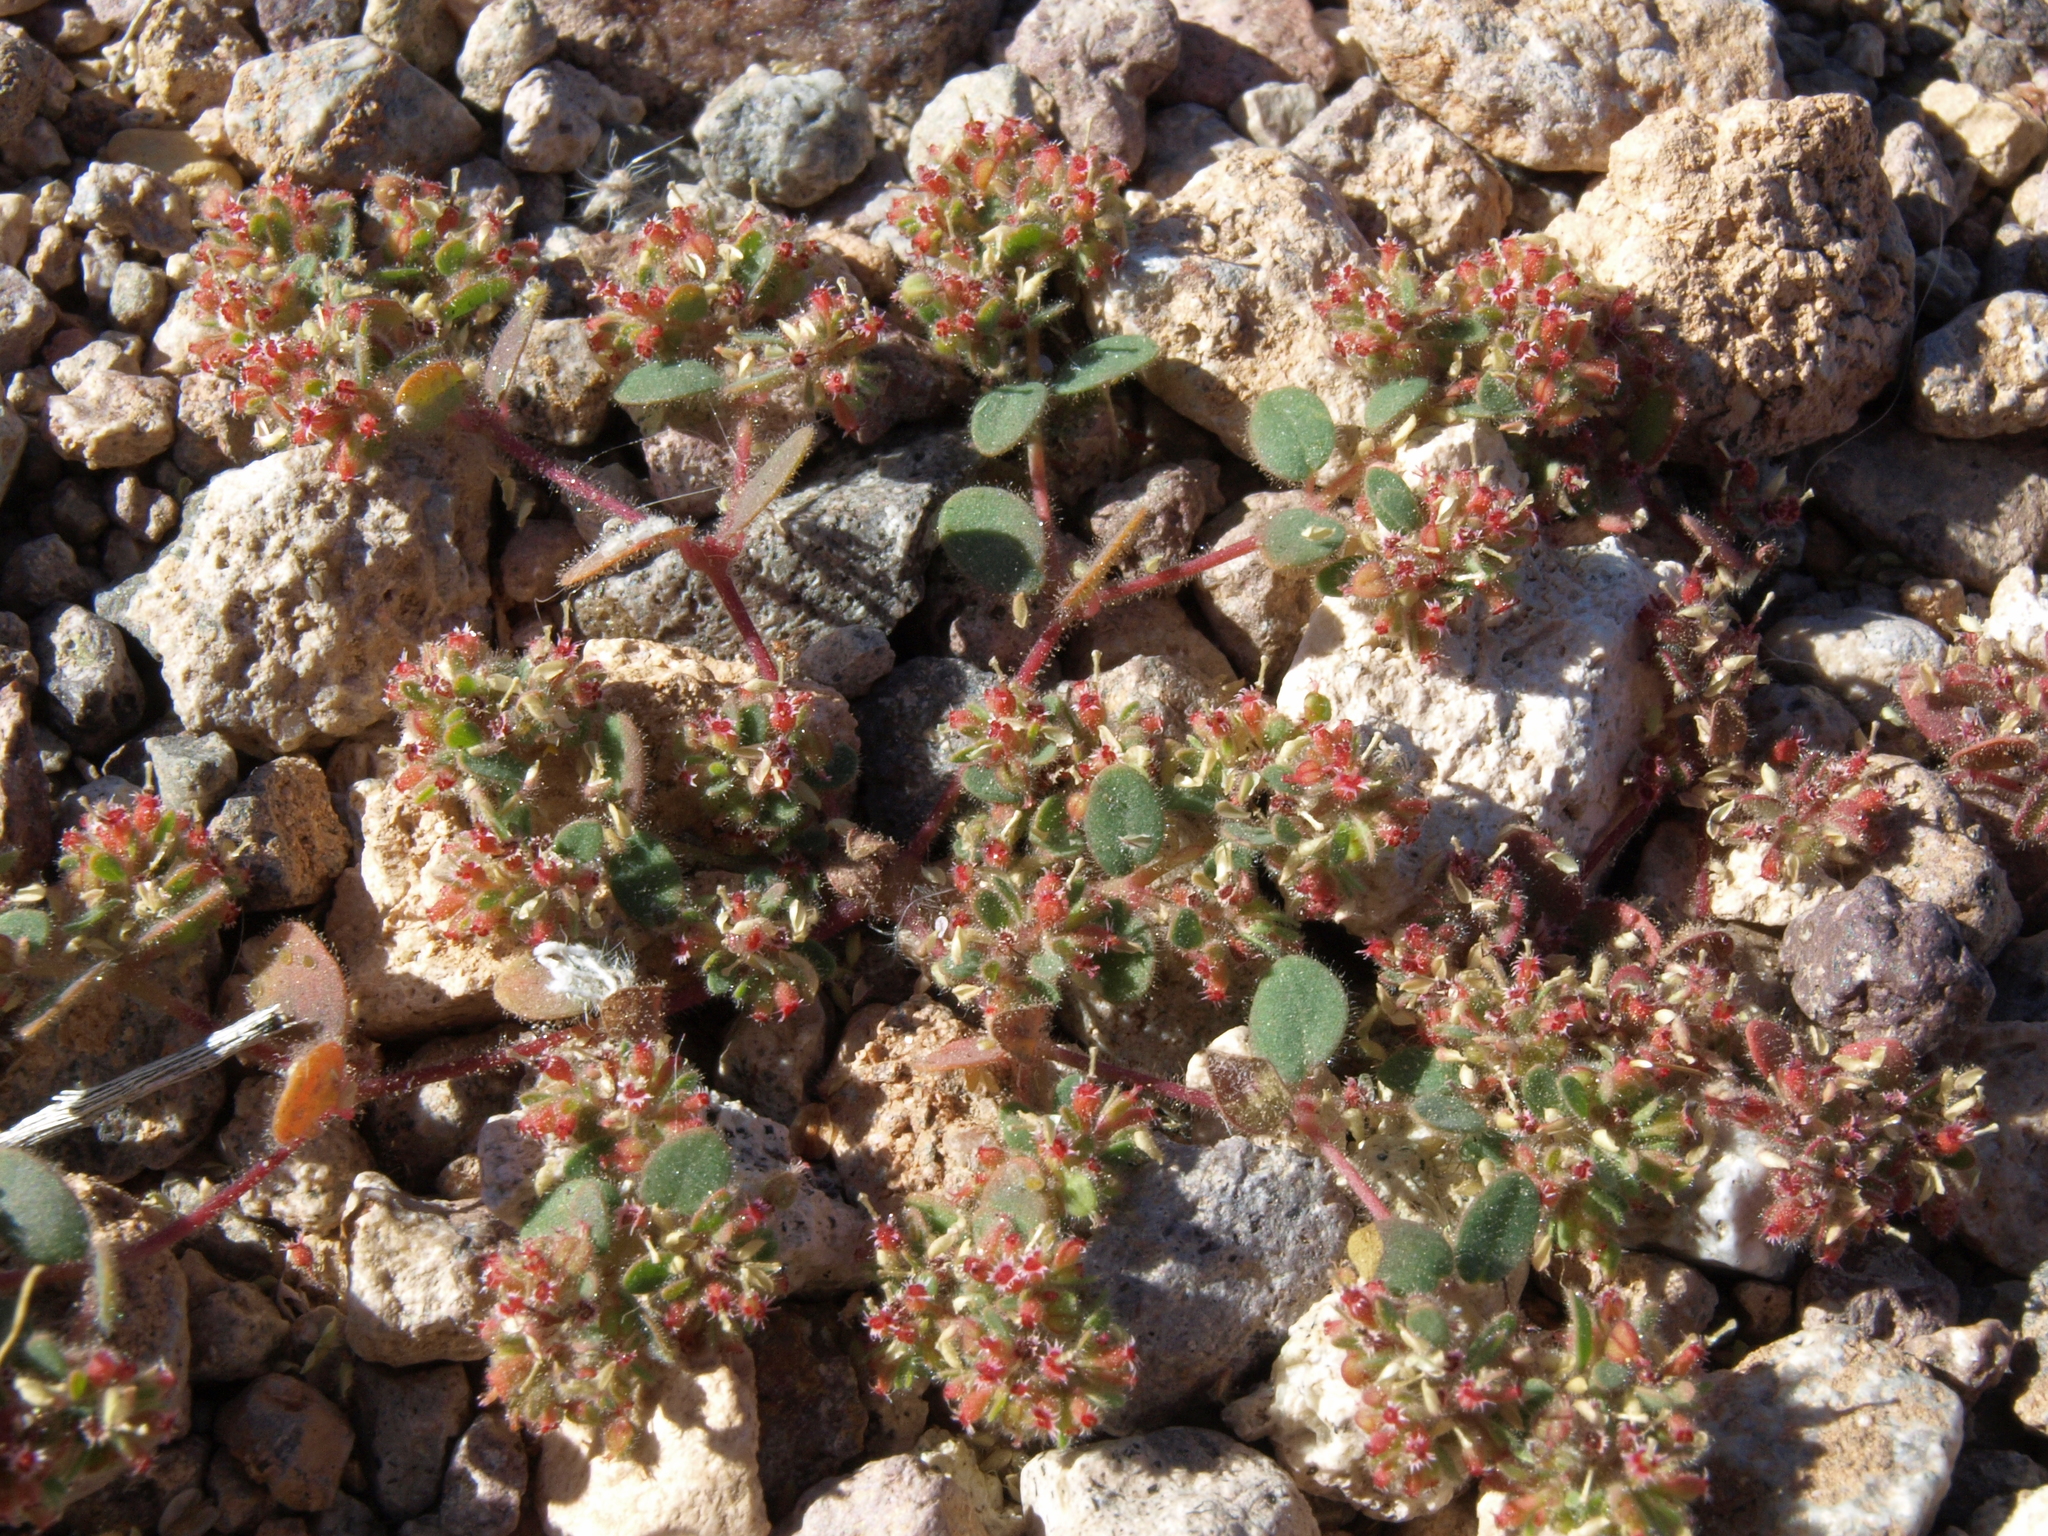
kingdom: Plantae
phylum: Tracheophyta
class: Magnoliopsida
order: Malpighiales
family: Euphorbiaceae
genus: Euphorbia
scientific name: Euphorbia setiloba
